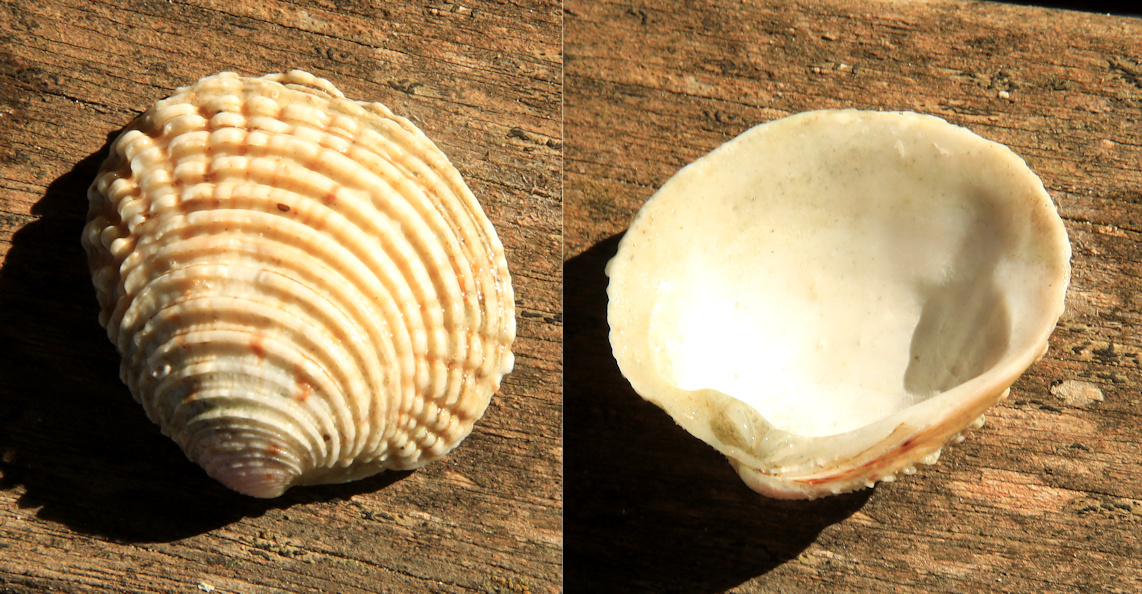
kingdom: Animalia
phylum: Mollusca
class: Bivalvia
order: Venerida
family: Veneridae
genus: Venus
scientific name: Venus verrucosa
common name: Warty venus
